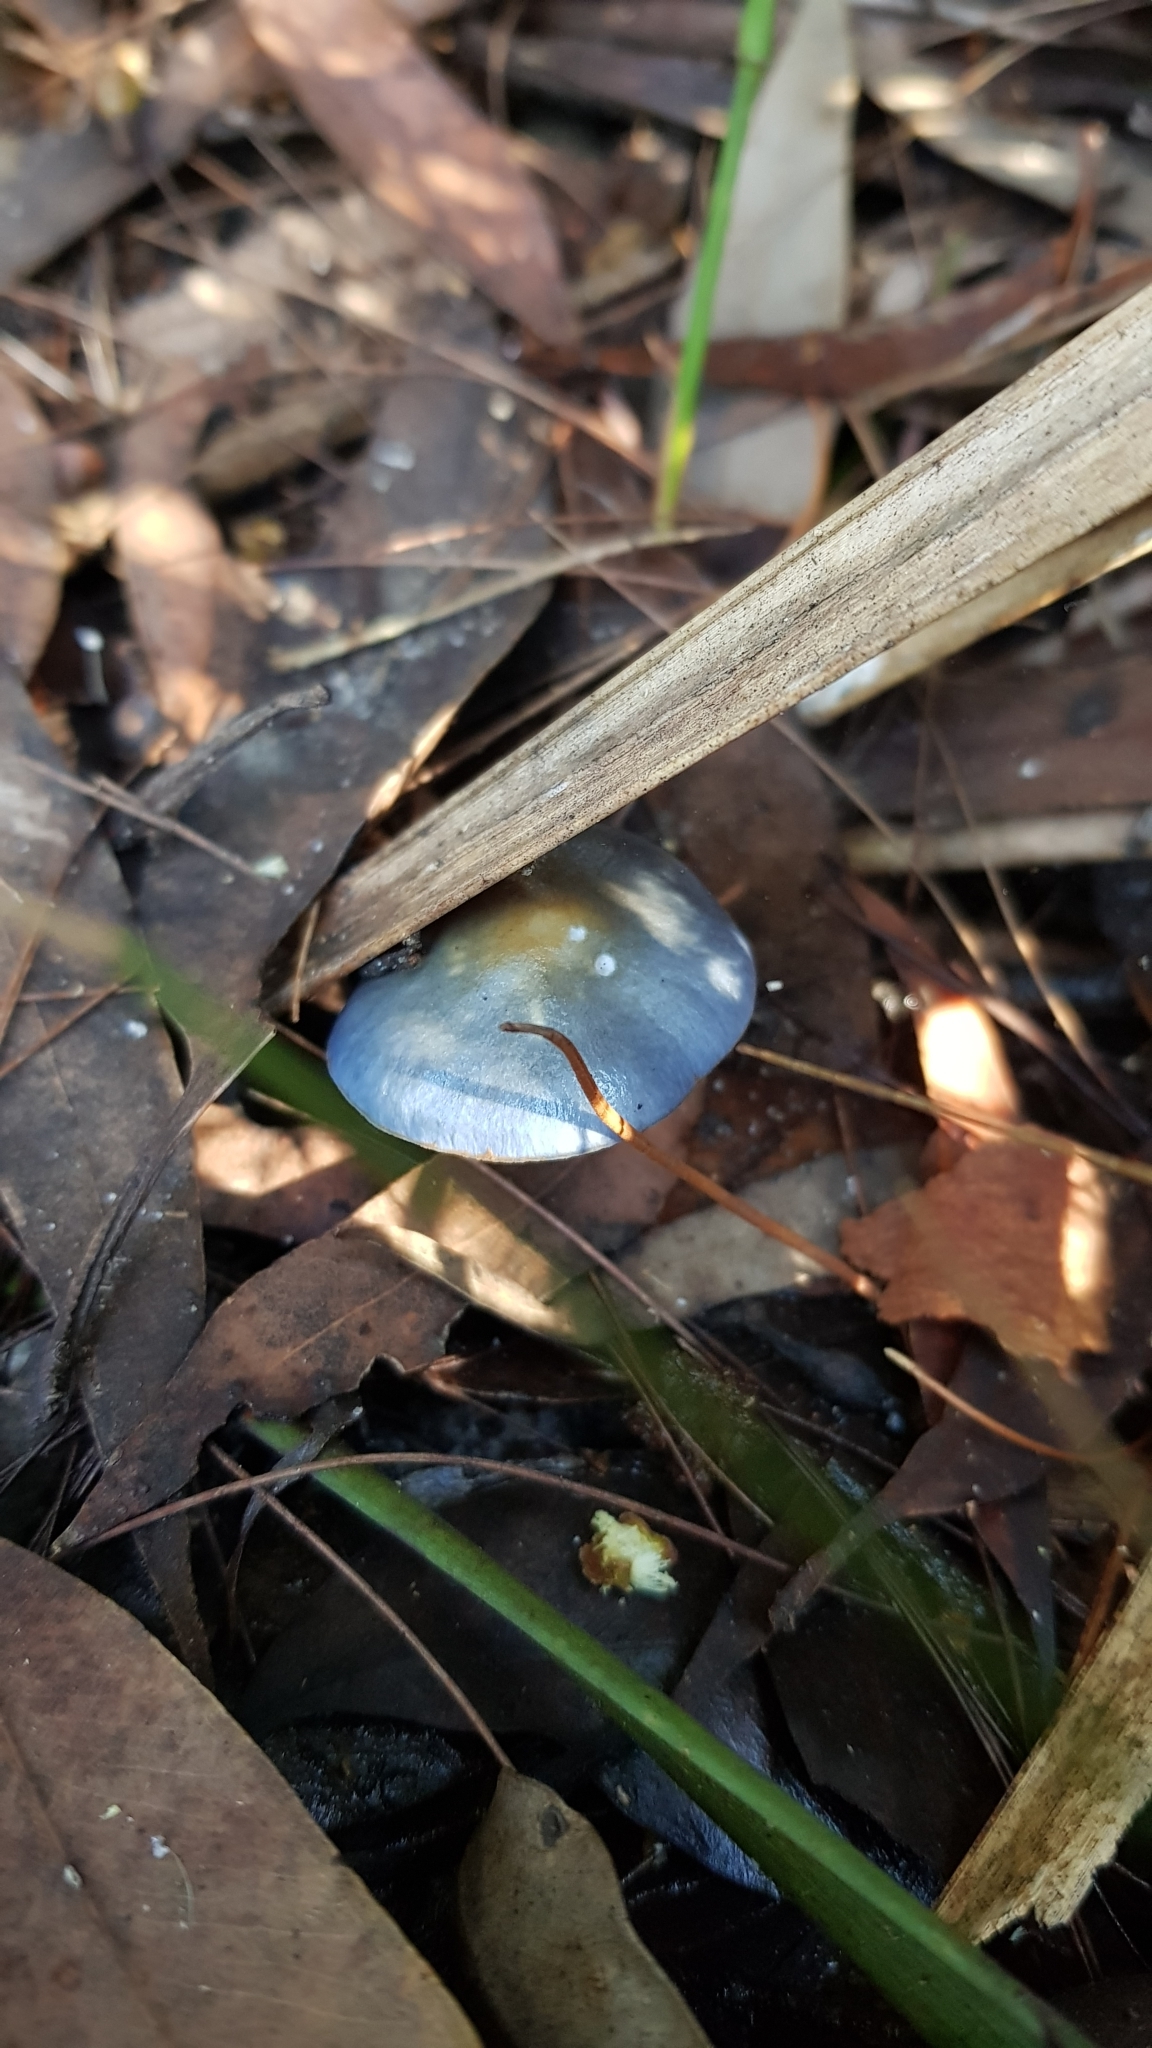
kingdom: Fungi
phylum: Basidiomycota
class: Agaricomycetes
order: Agaricales
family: Cortinariaceae
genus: Cortinarius
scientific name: Cortinarius rotundisporus
